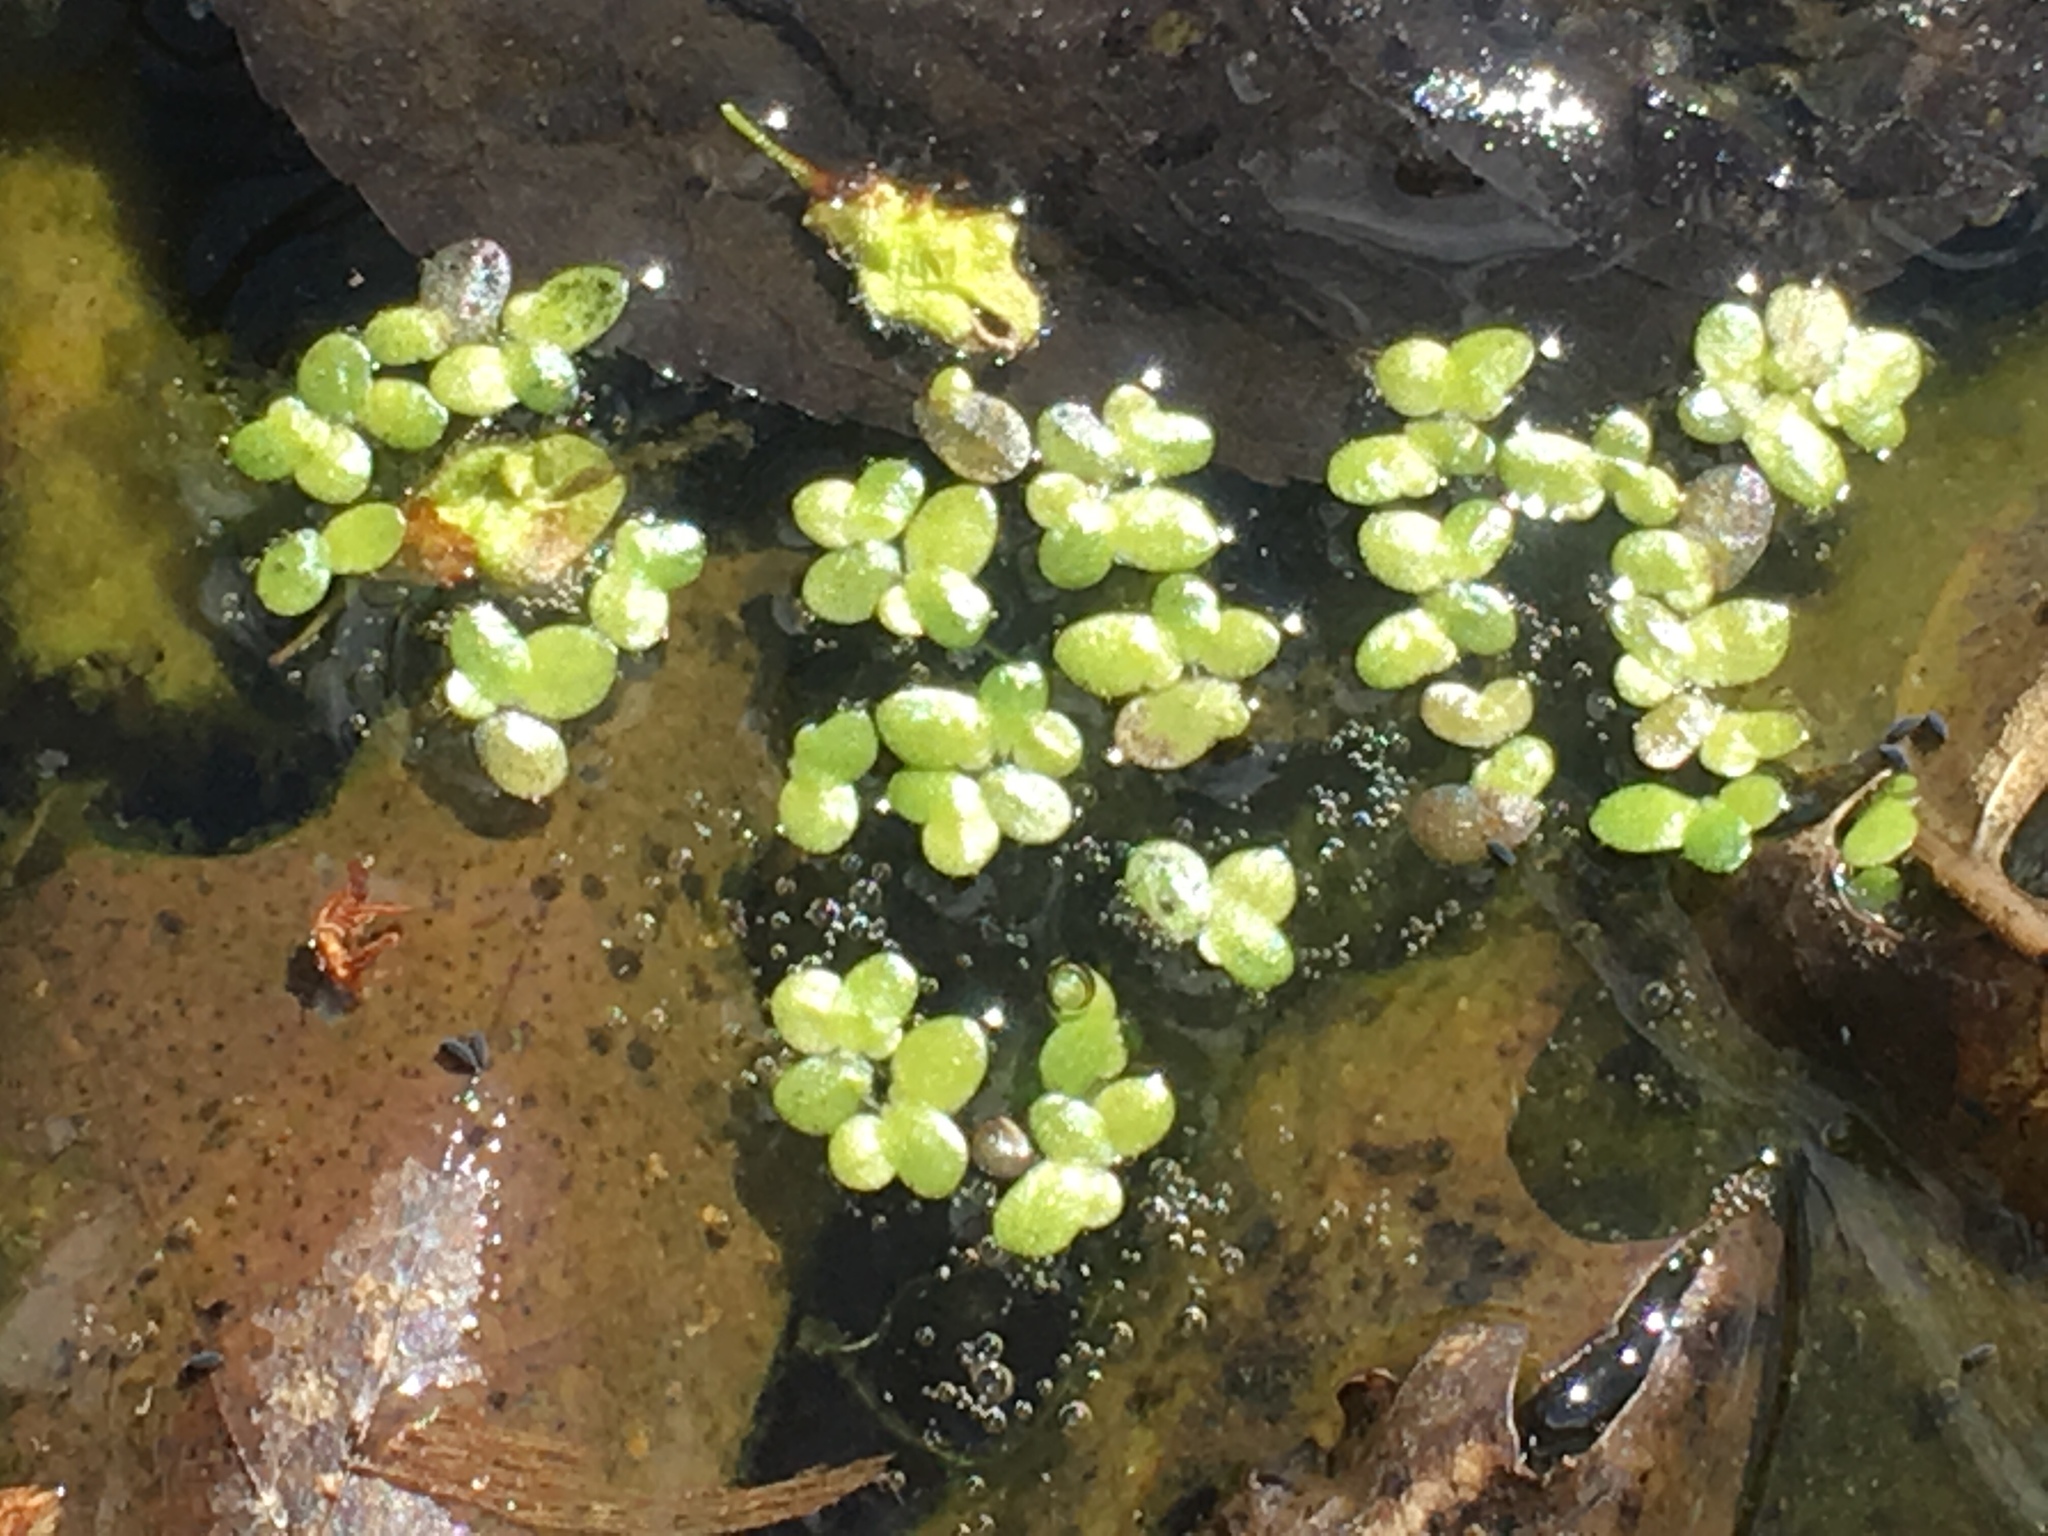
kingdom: Plantae
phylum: Tracheophyta
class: Liliopsida
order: Alismatales
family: Araceae
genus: Lemna
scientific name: Lemna minor
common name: Common duckweed
